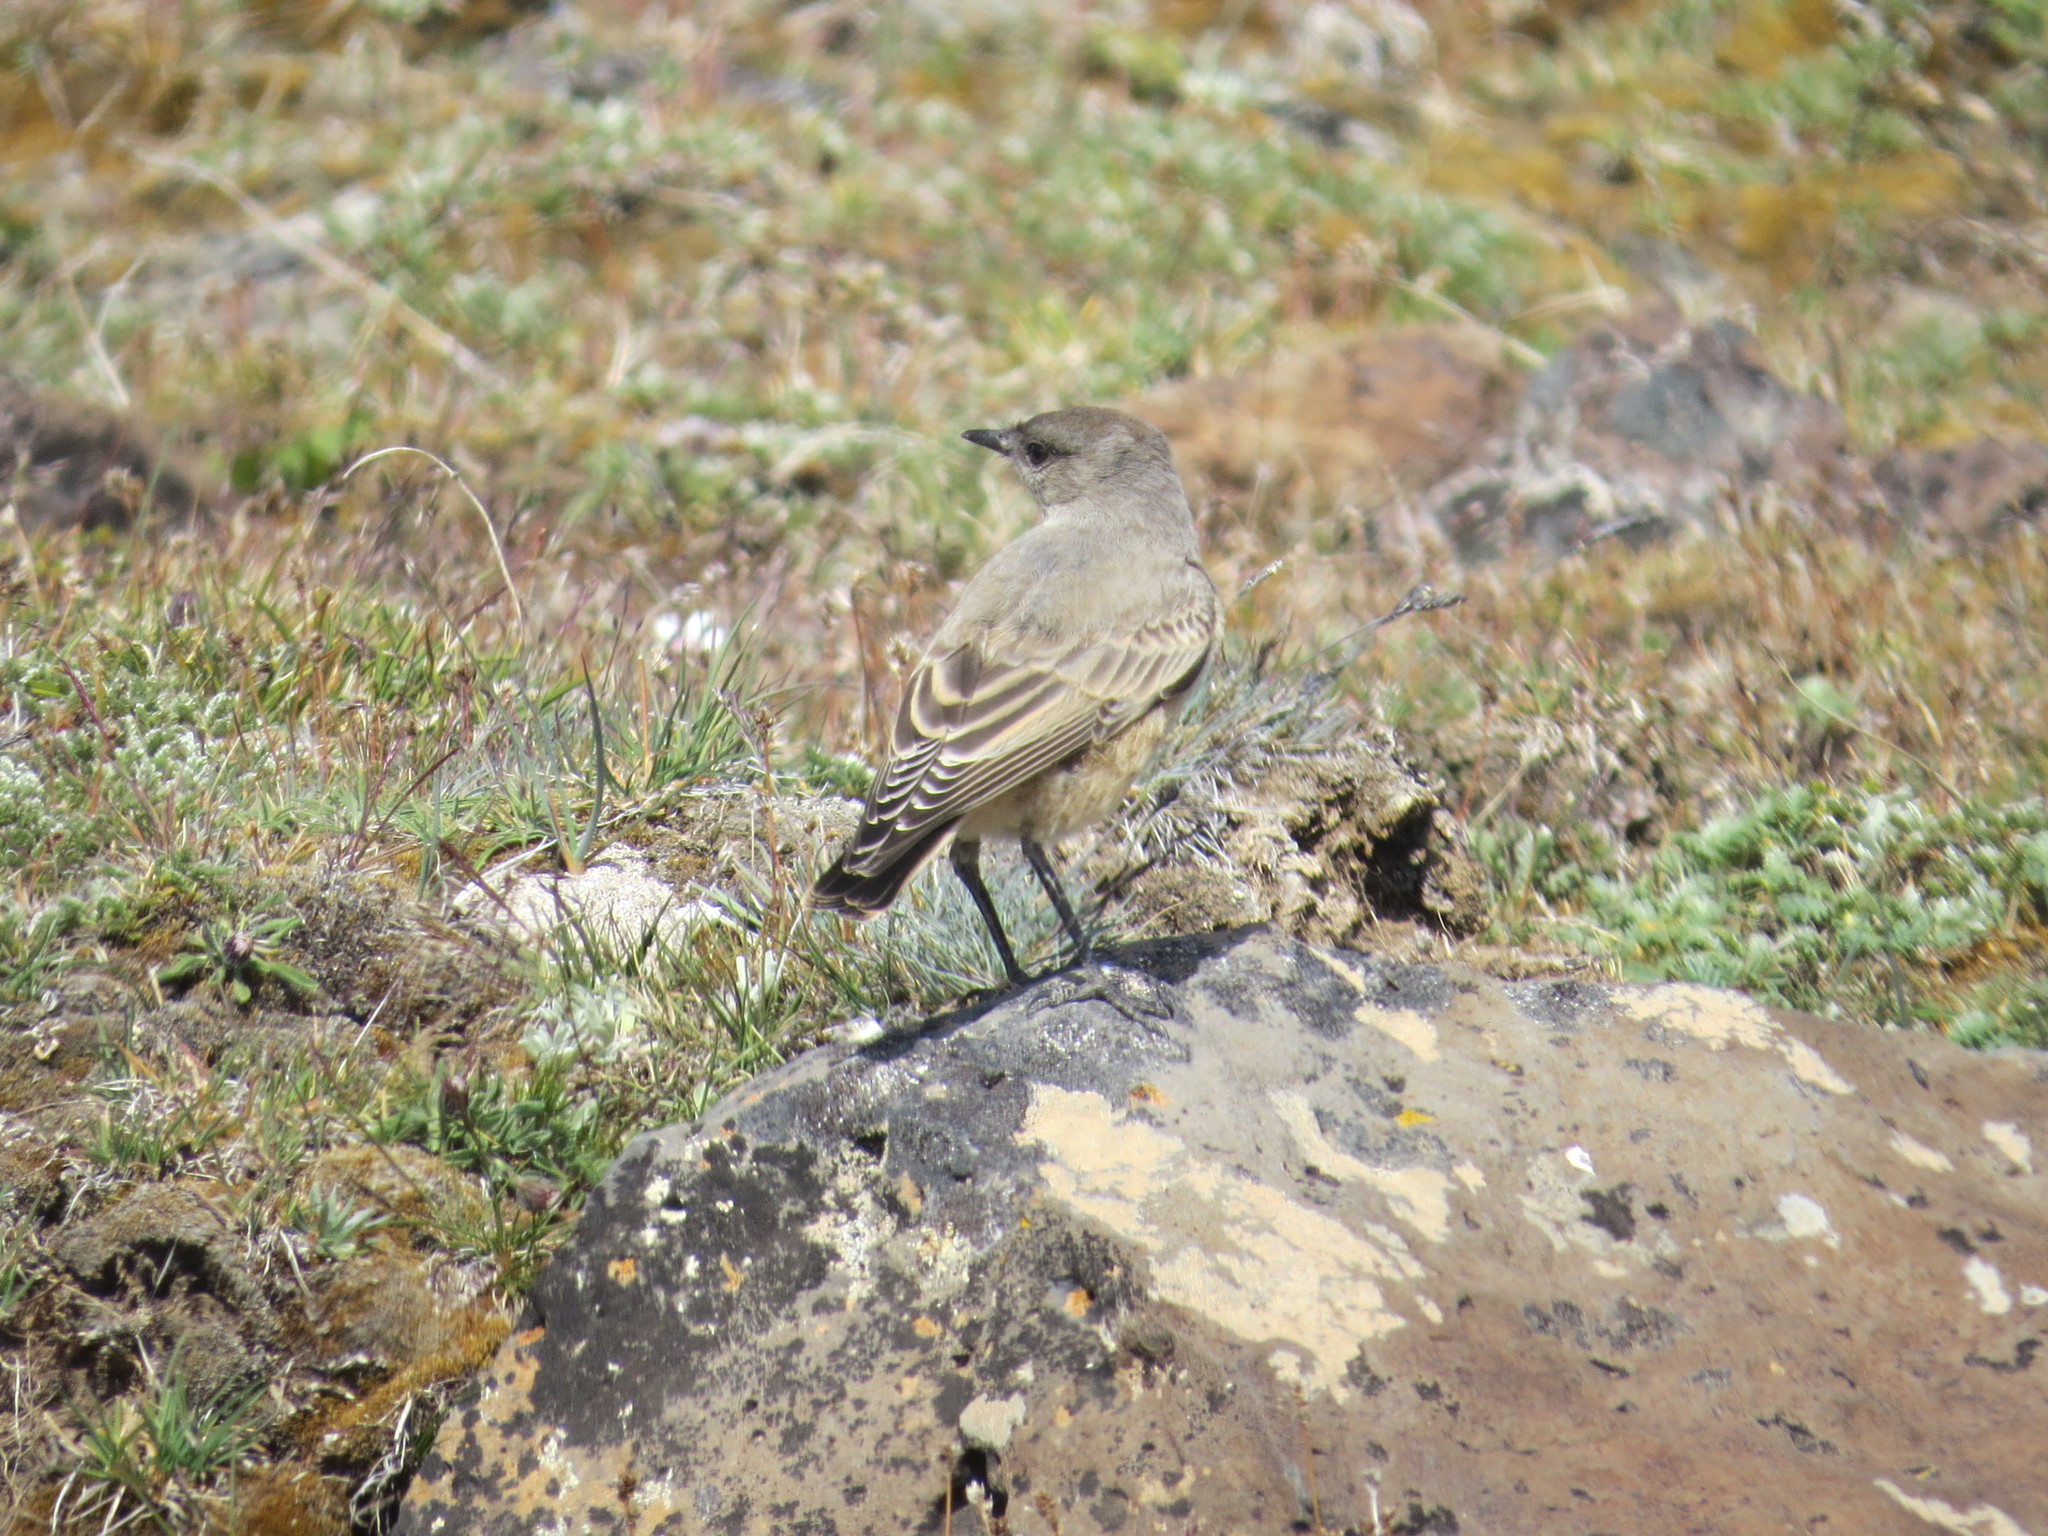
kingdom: Animalia
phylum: Chordata
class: Aves
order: Passeriformes
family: Tyrannidae
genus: Muscisaxicola
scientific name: Muscisaxicola capistratus
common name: Cinnamon-bellied ground tyrant
